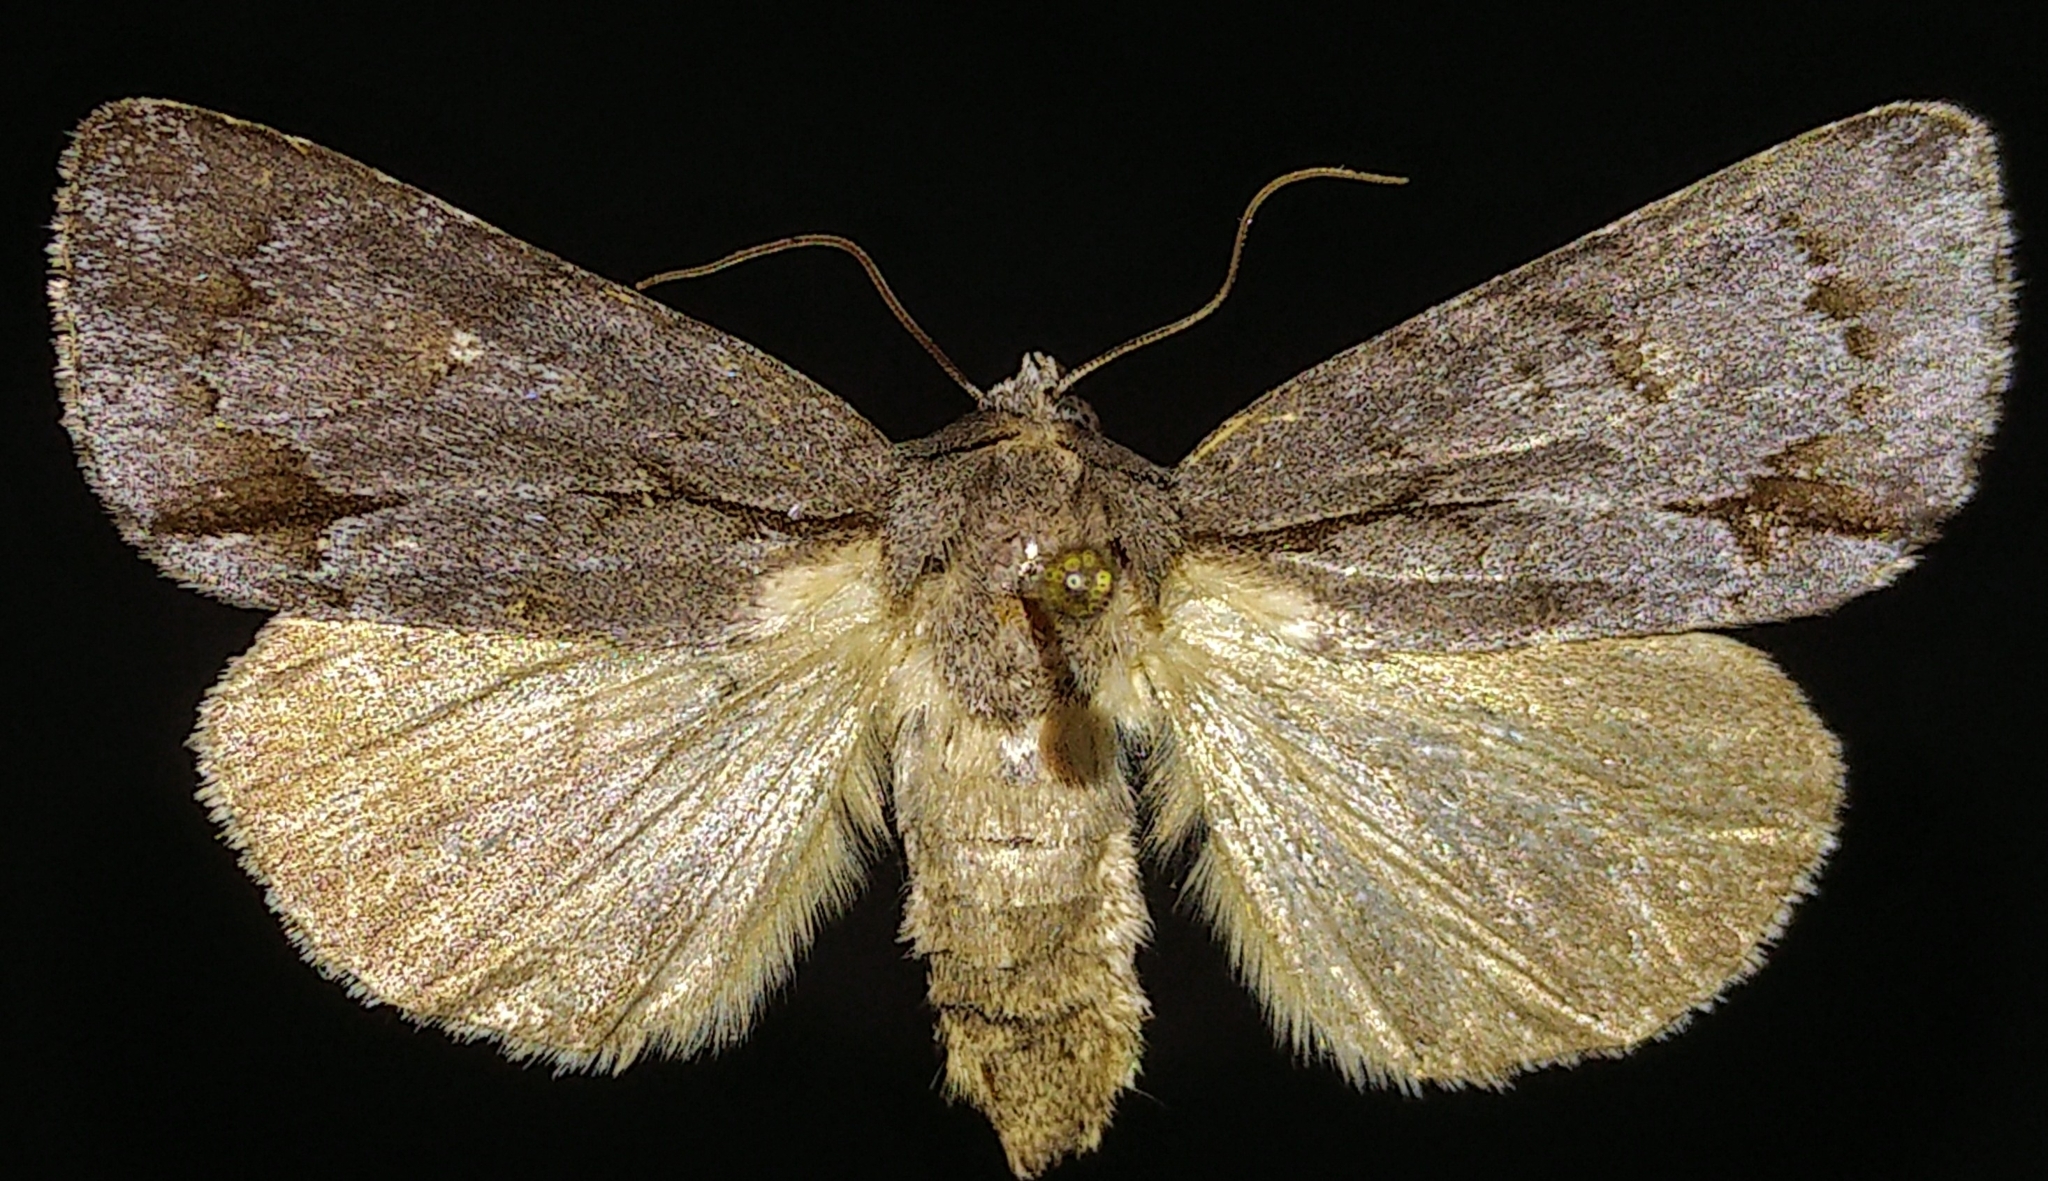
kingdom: Animalia
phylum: Arthropoda
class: Insecta
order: Lepidoptera
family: Noctuidae
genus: Acronicta
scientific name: Acronicta tritona
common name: Triton dagger
